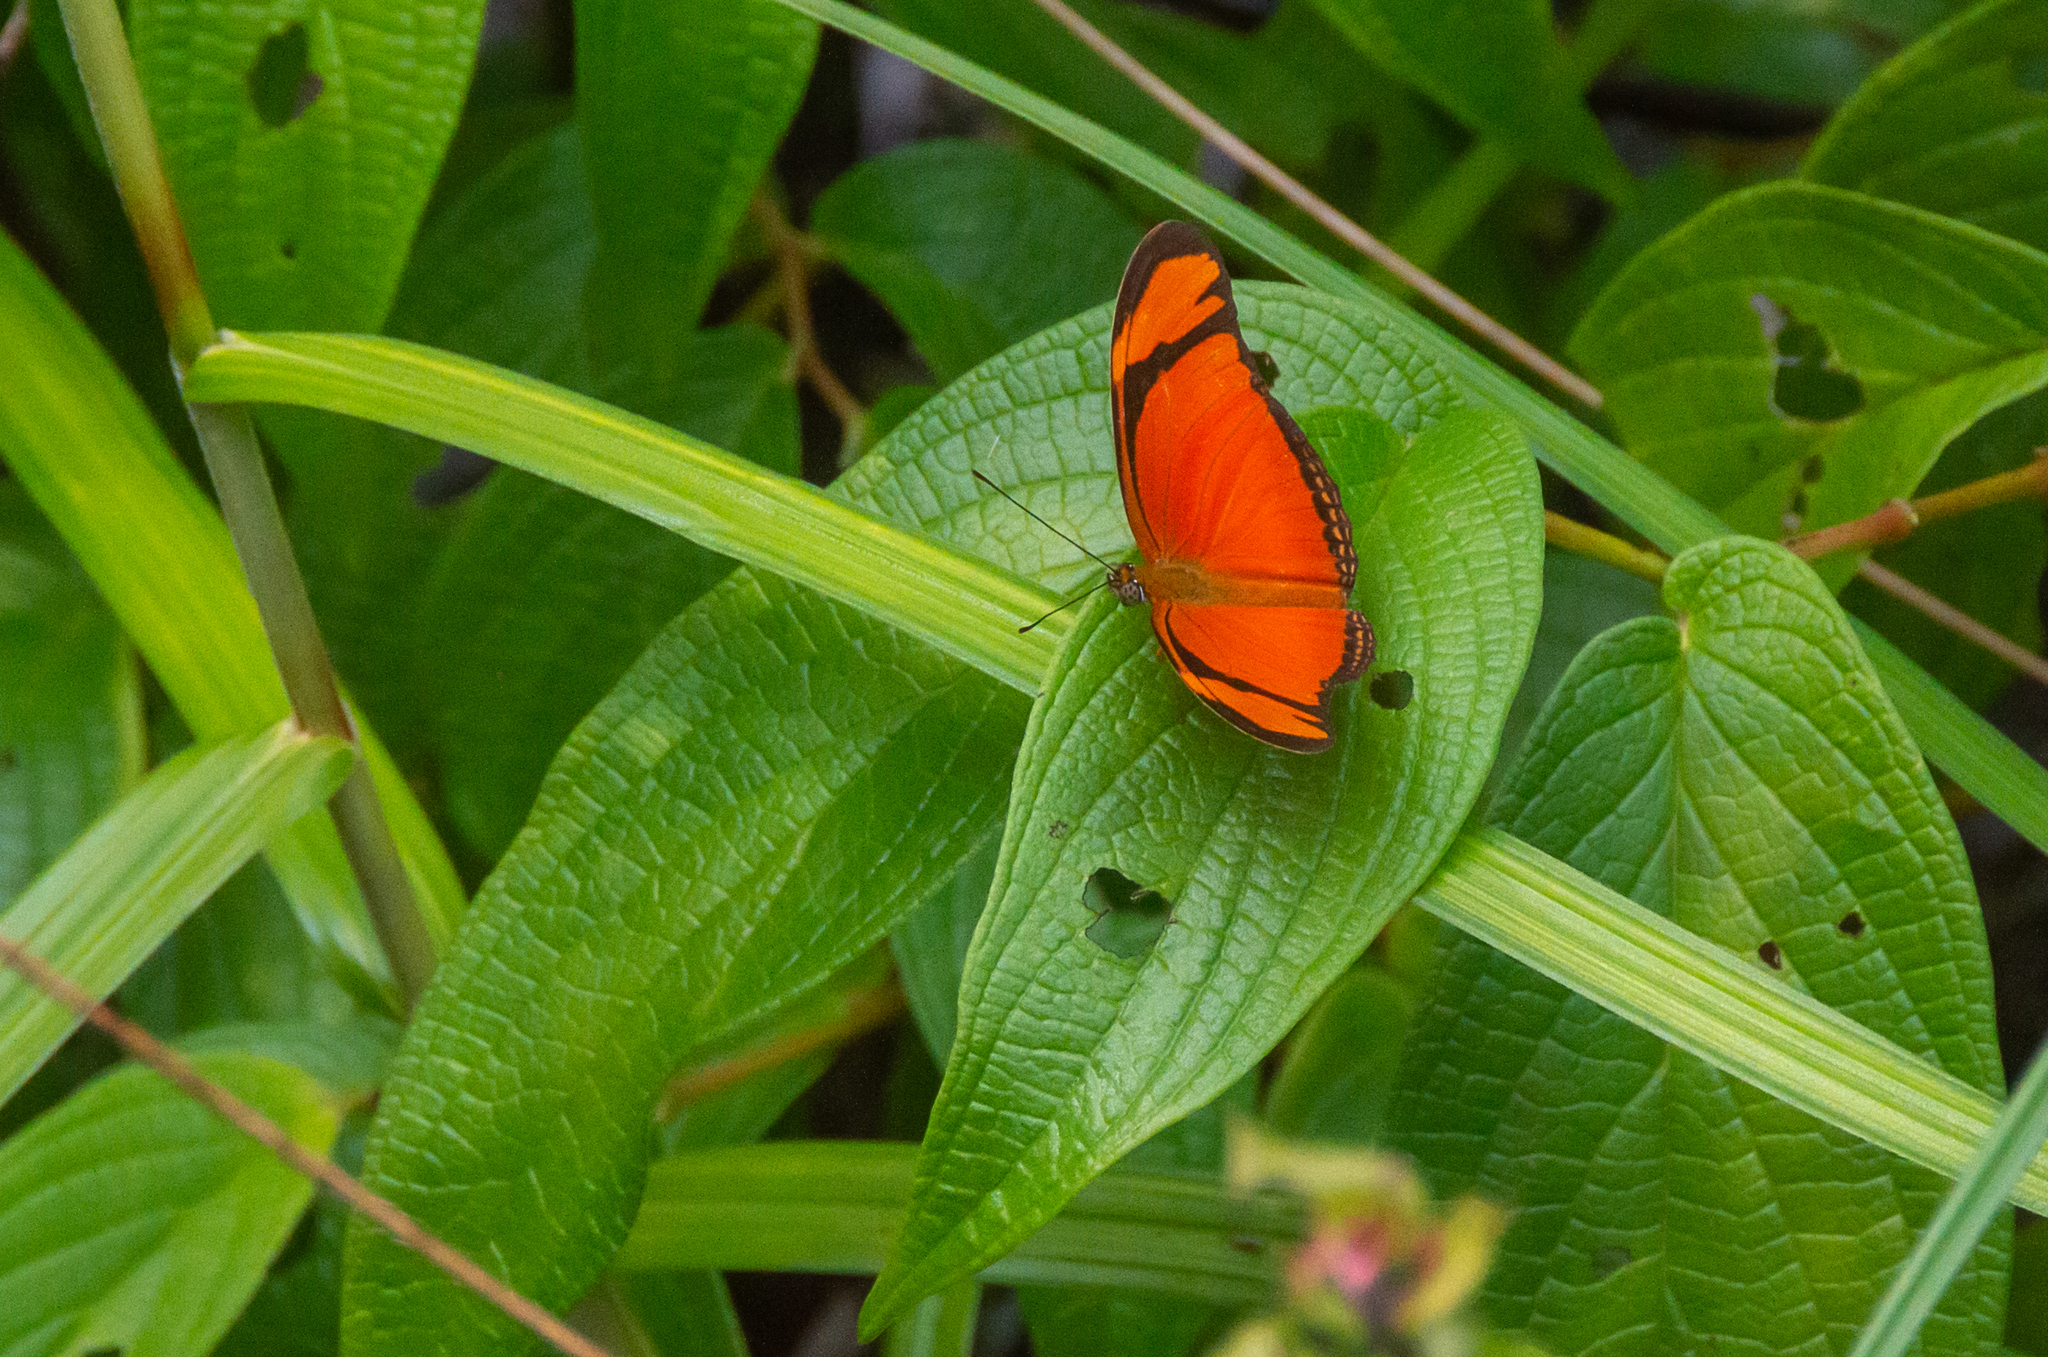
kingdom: Animalia
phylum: Arthropoda
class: Insecta
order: Lepidoptera
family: Nymphalidae
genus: Dryas
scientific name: Dryas iulia
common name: Flambeau
